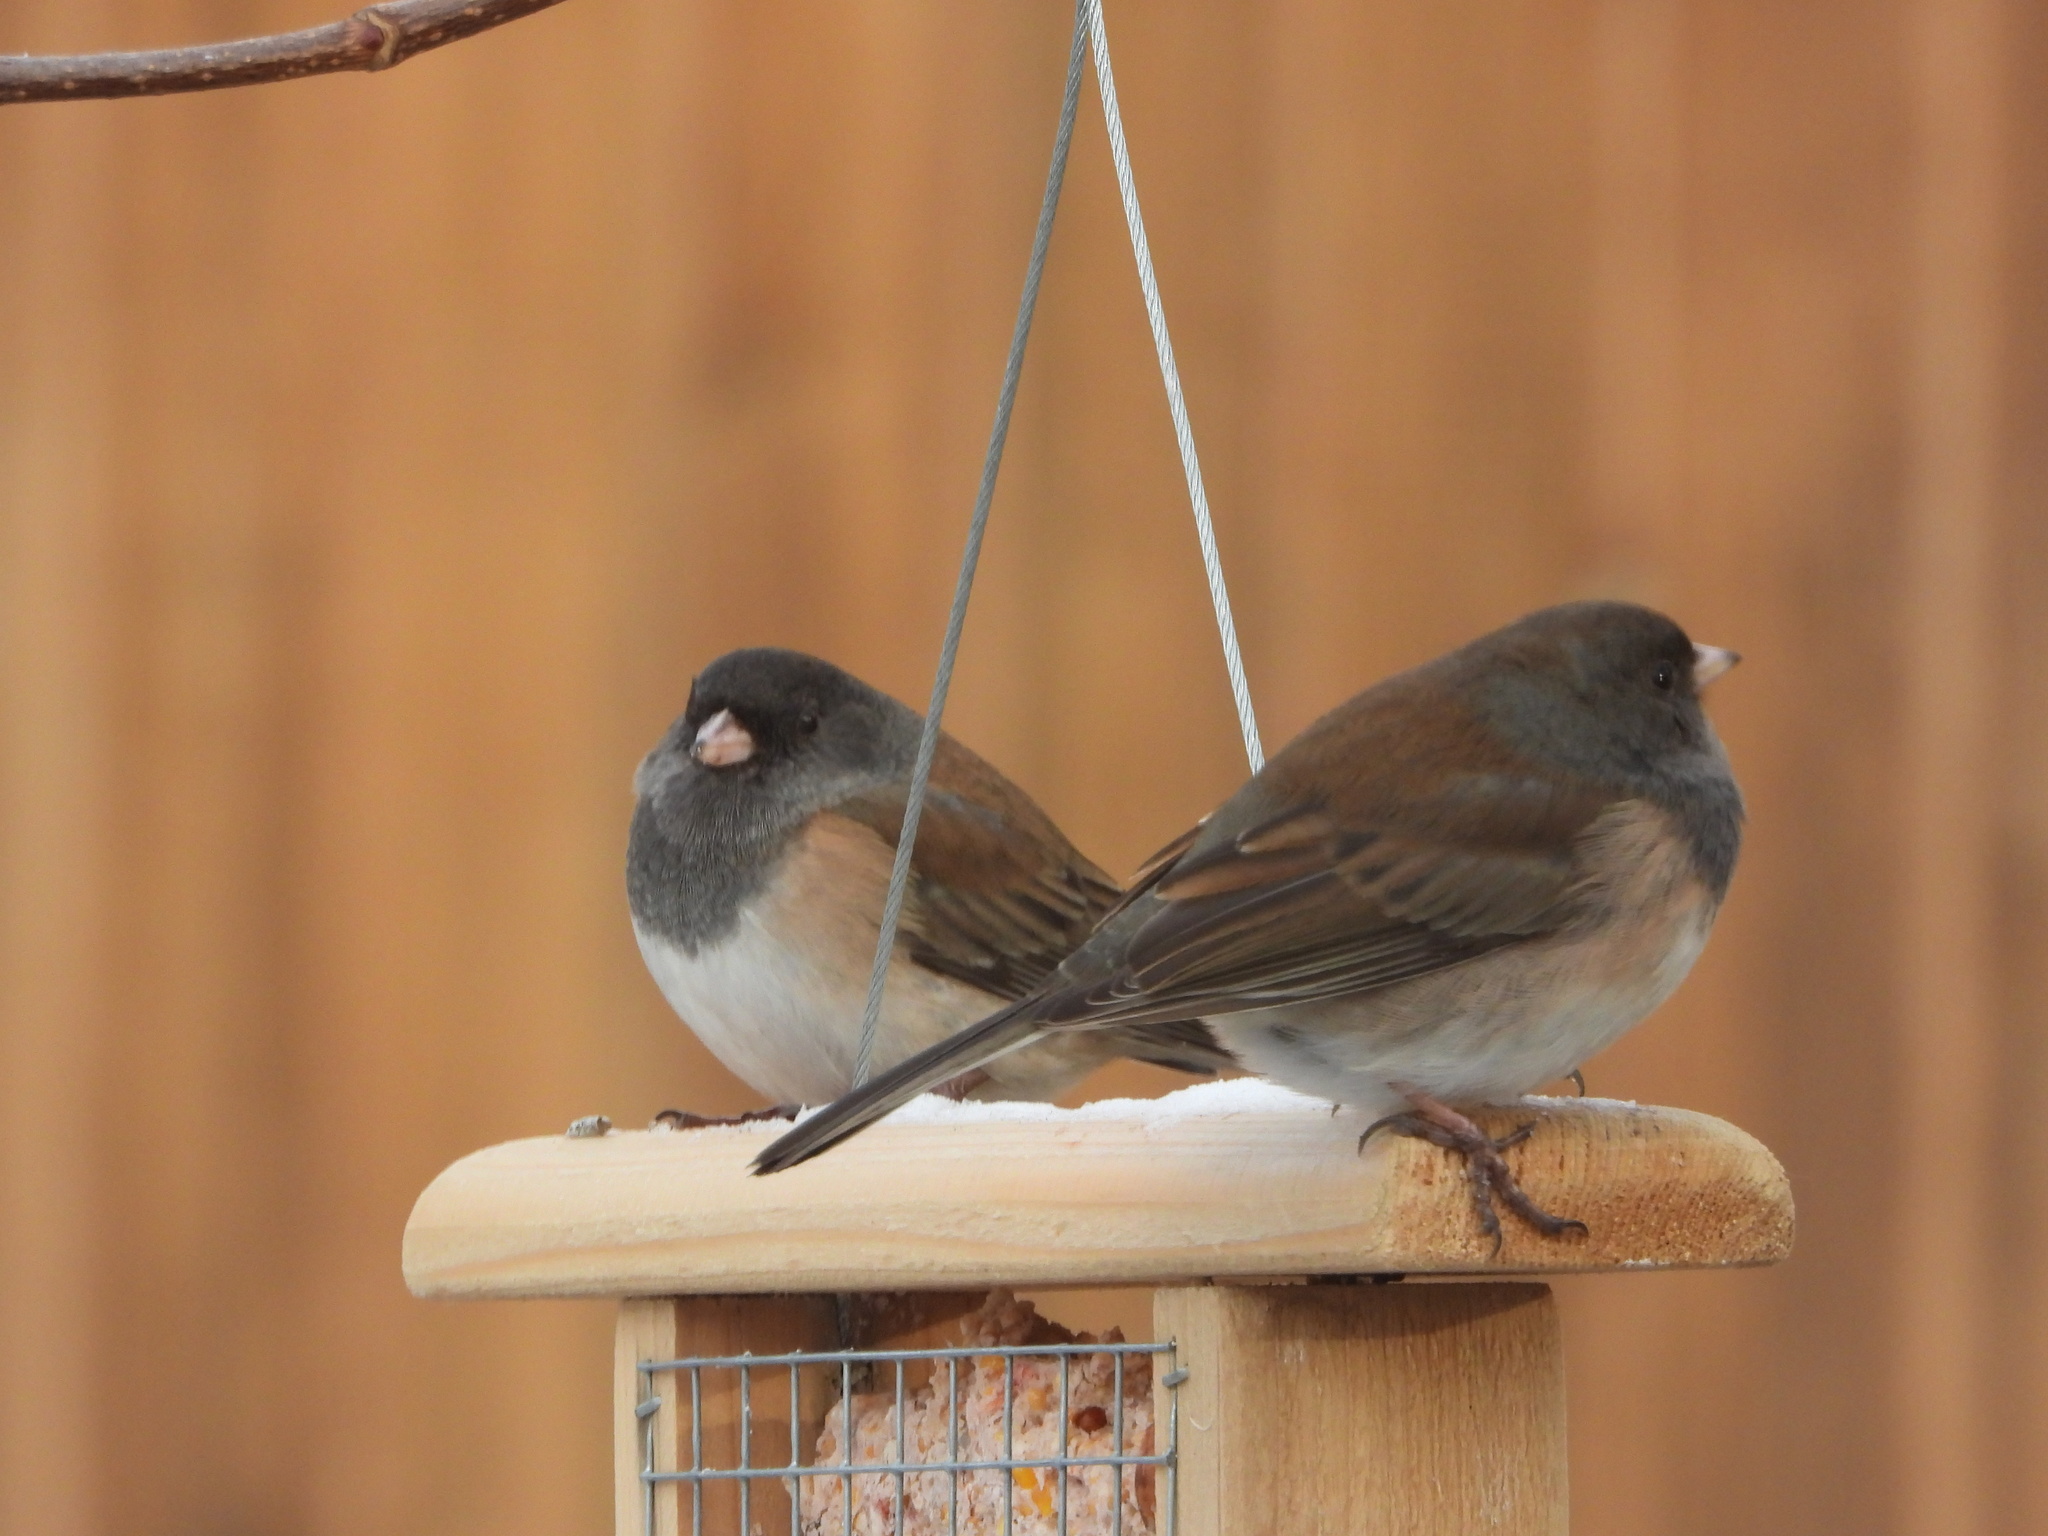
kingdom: Animalia
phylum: Chordata
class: Aves
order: Passeriformes
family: Passerellidae
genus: Junco
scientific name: Junco hyemalis
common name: Dark-eyed junco
